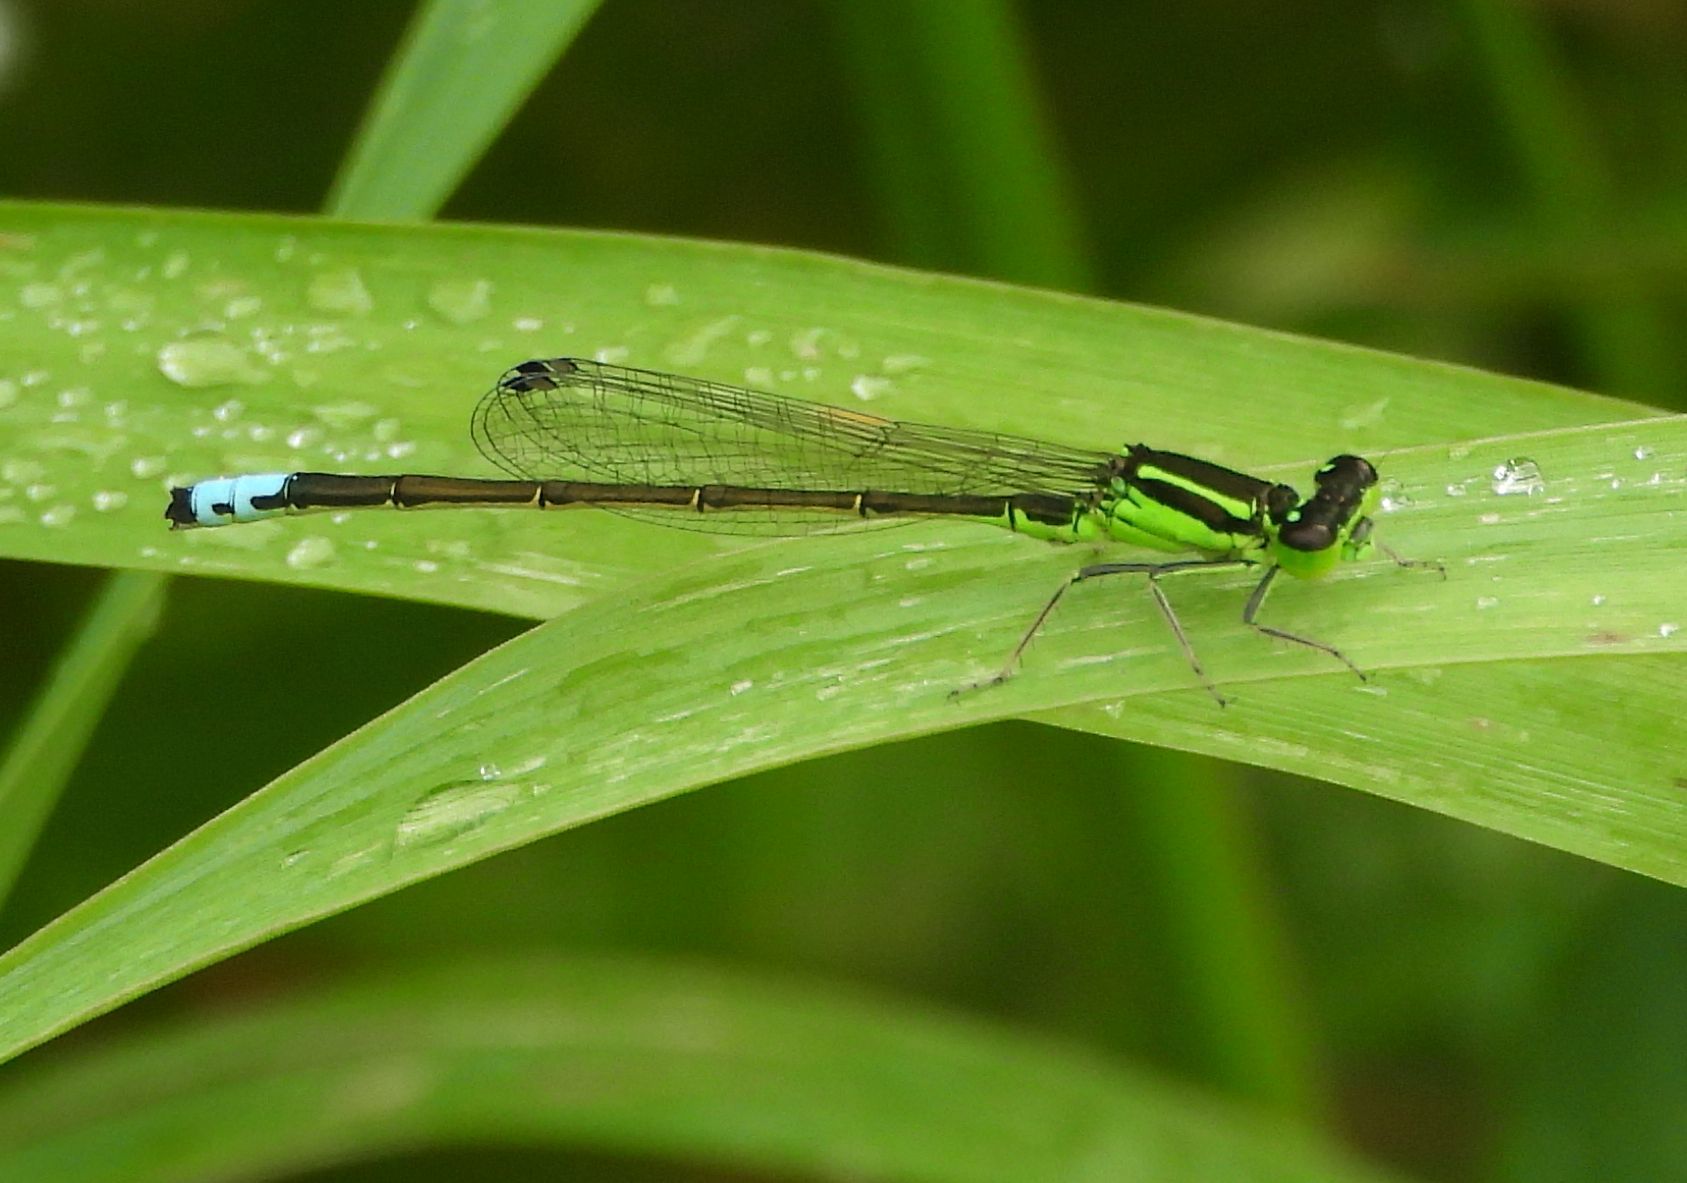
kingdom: Animalia
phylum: Arthropoda
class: Insecta
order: Odonata
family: Coenagrionidae
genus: Ischnura
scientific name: Ischnura verticalis
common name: Eastern forktail
